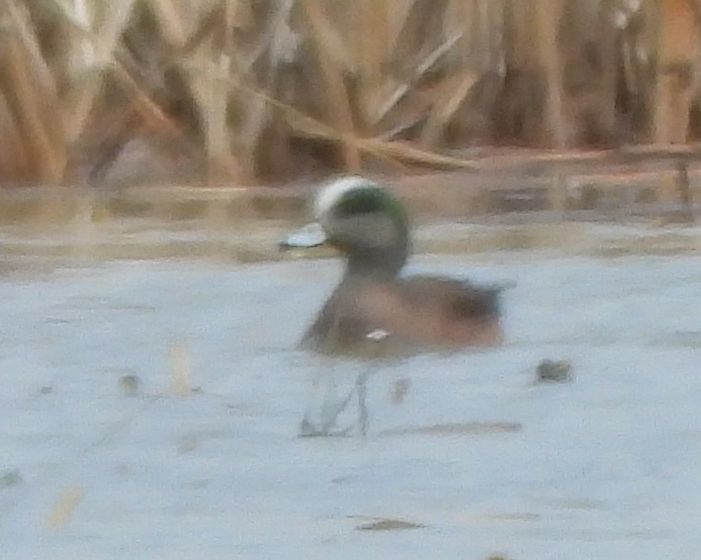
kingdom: Animalia
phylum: Chordata
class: Aves
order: Anseriformes
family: Anatidae
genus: Mareca
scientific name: Mareca americana
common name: American wigeon
